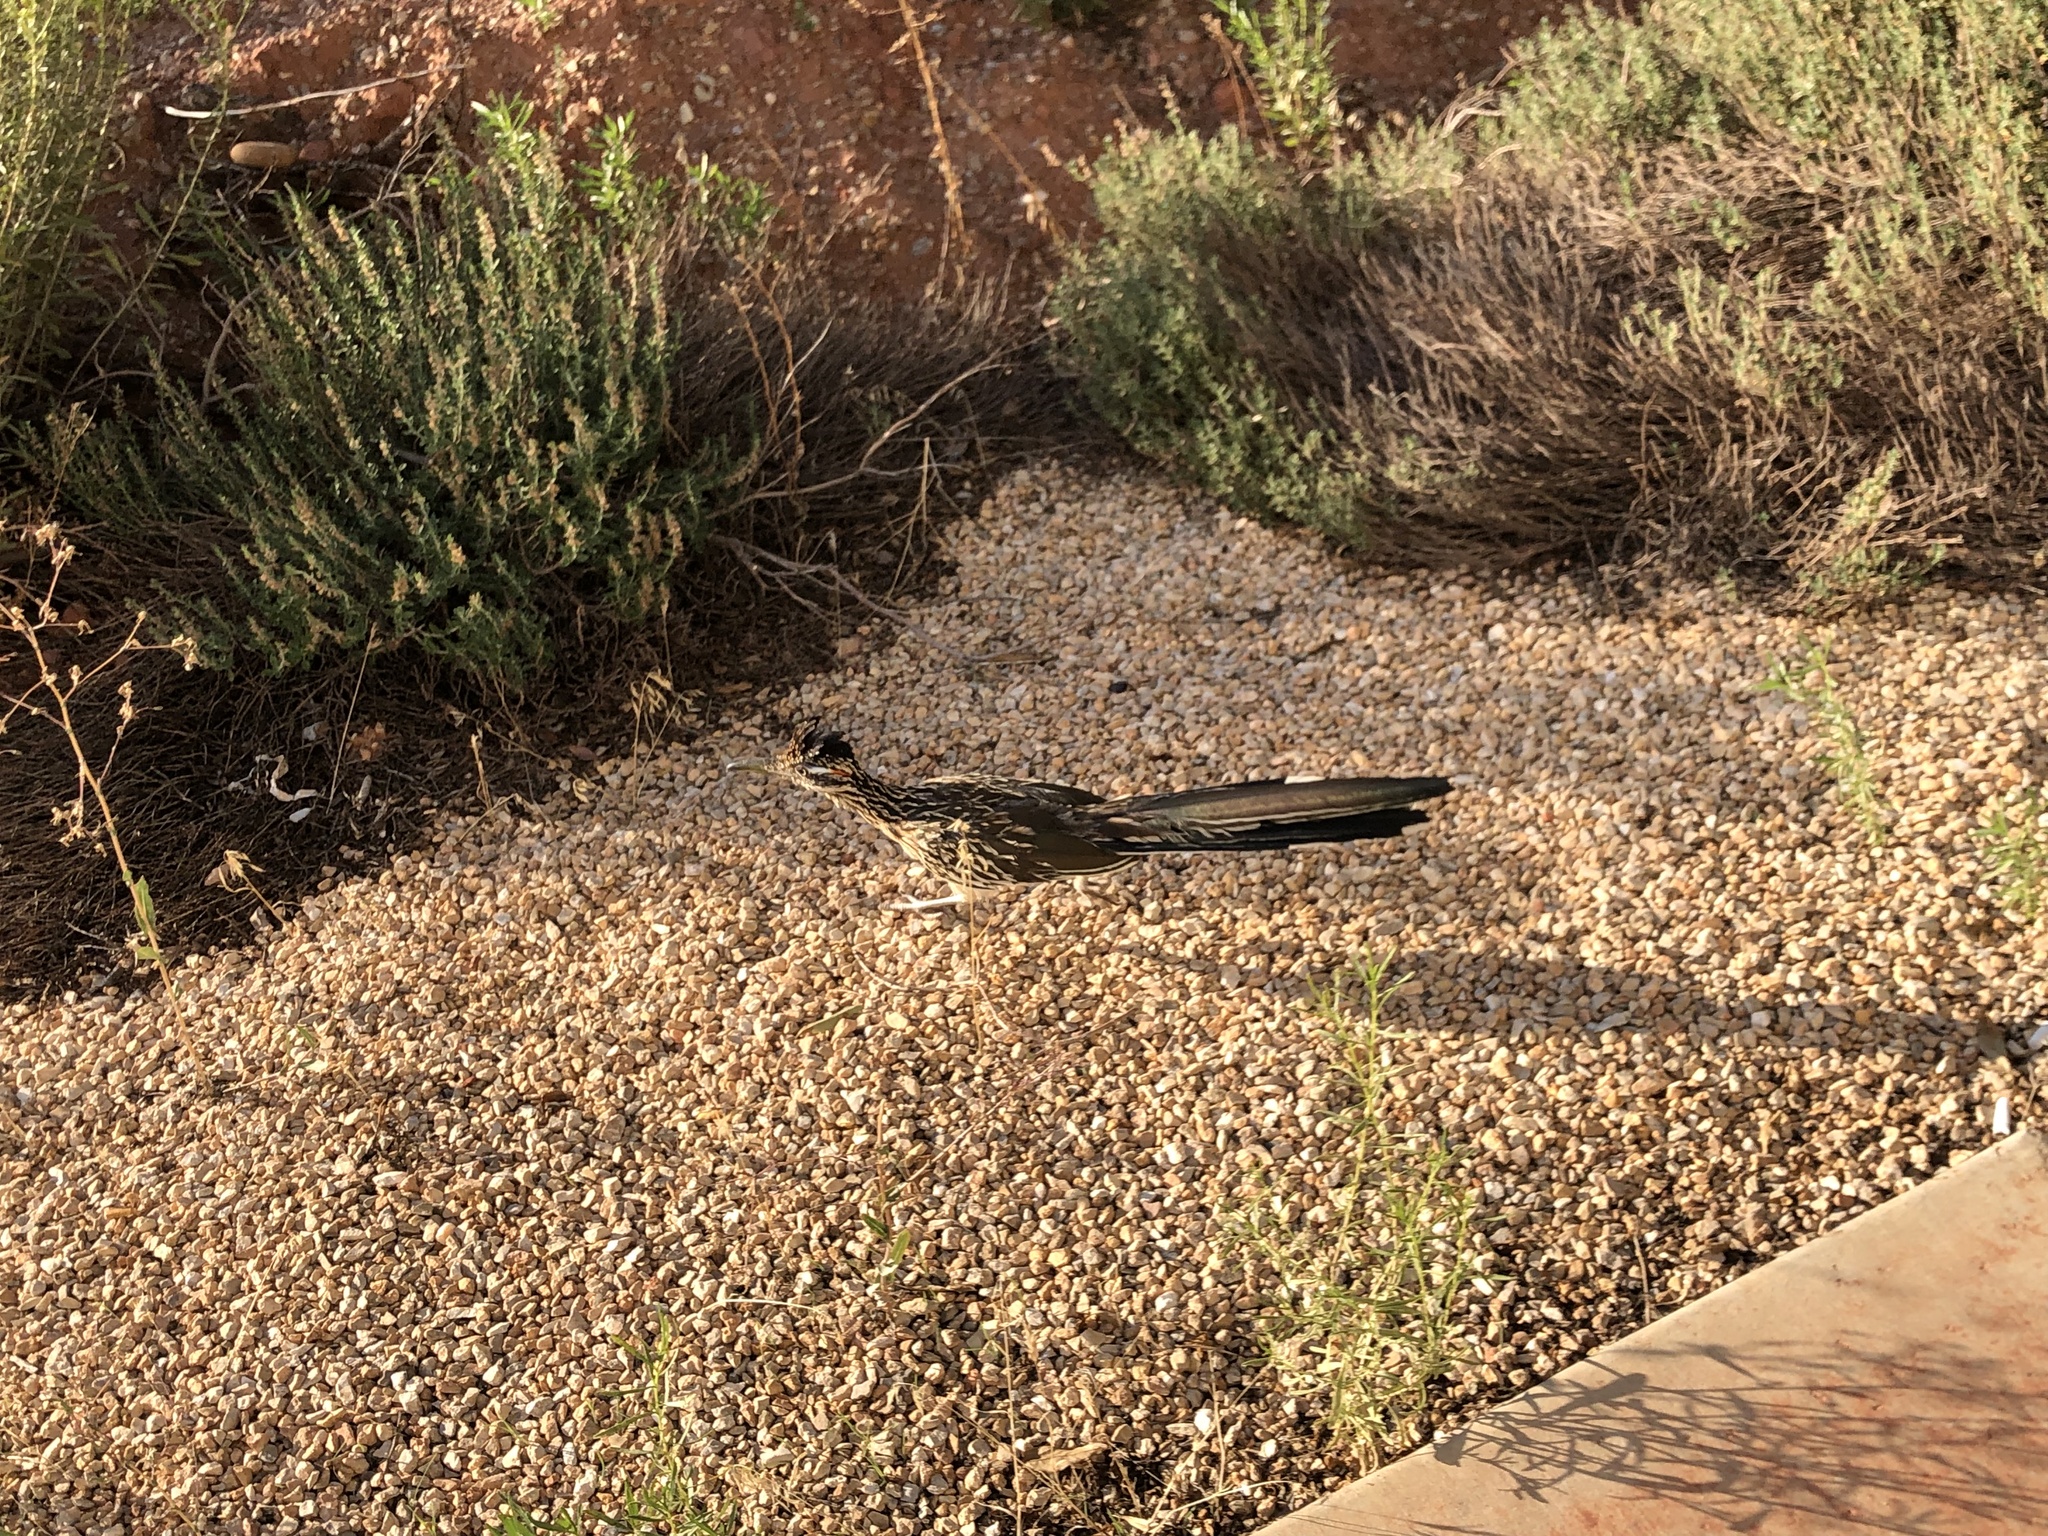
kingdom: Animalia
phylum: Chordata
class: Aves
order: Cuculiformes
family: Cuculidae
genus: Geococcyx
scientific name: Geococcyx californianus
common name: Greater roadrunner
